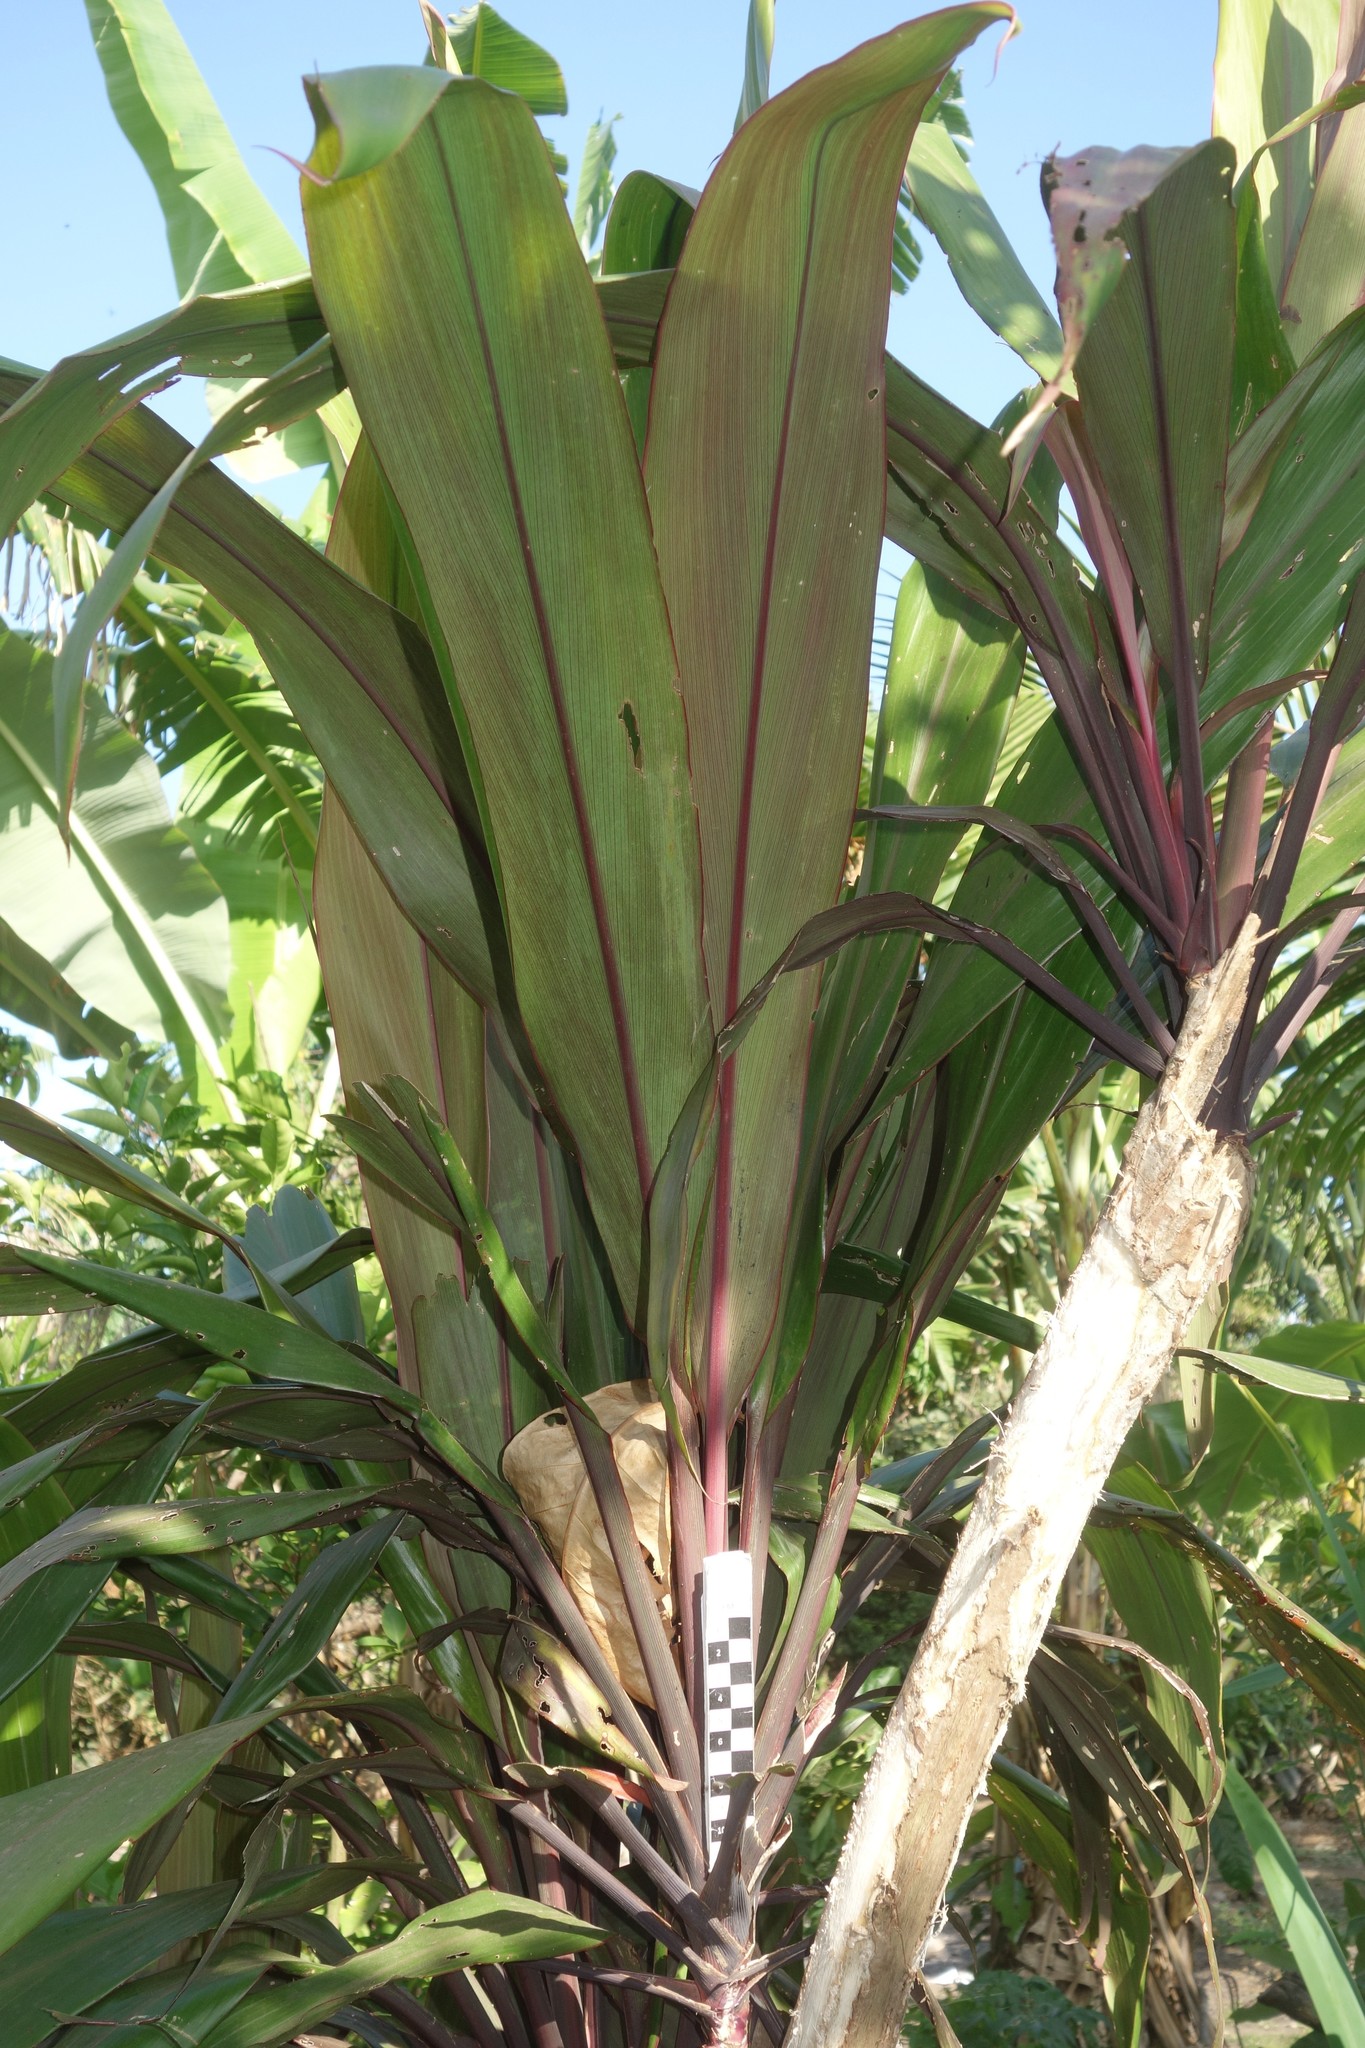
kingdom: Plantae
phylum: Tracheophyta
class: Liliopsida
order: Asparagales
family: Asparagaceae
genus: Cordyline
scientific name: Cordyline fruticosa
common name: Good-luck-plant
